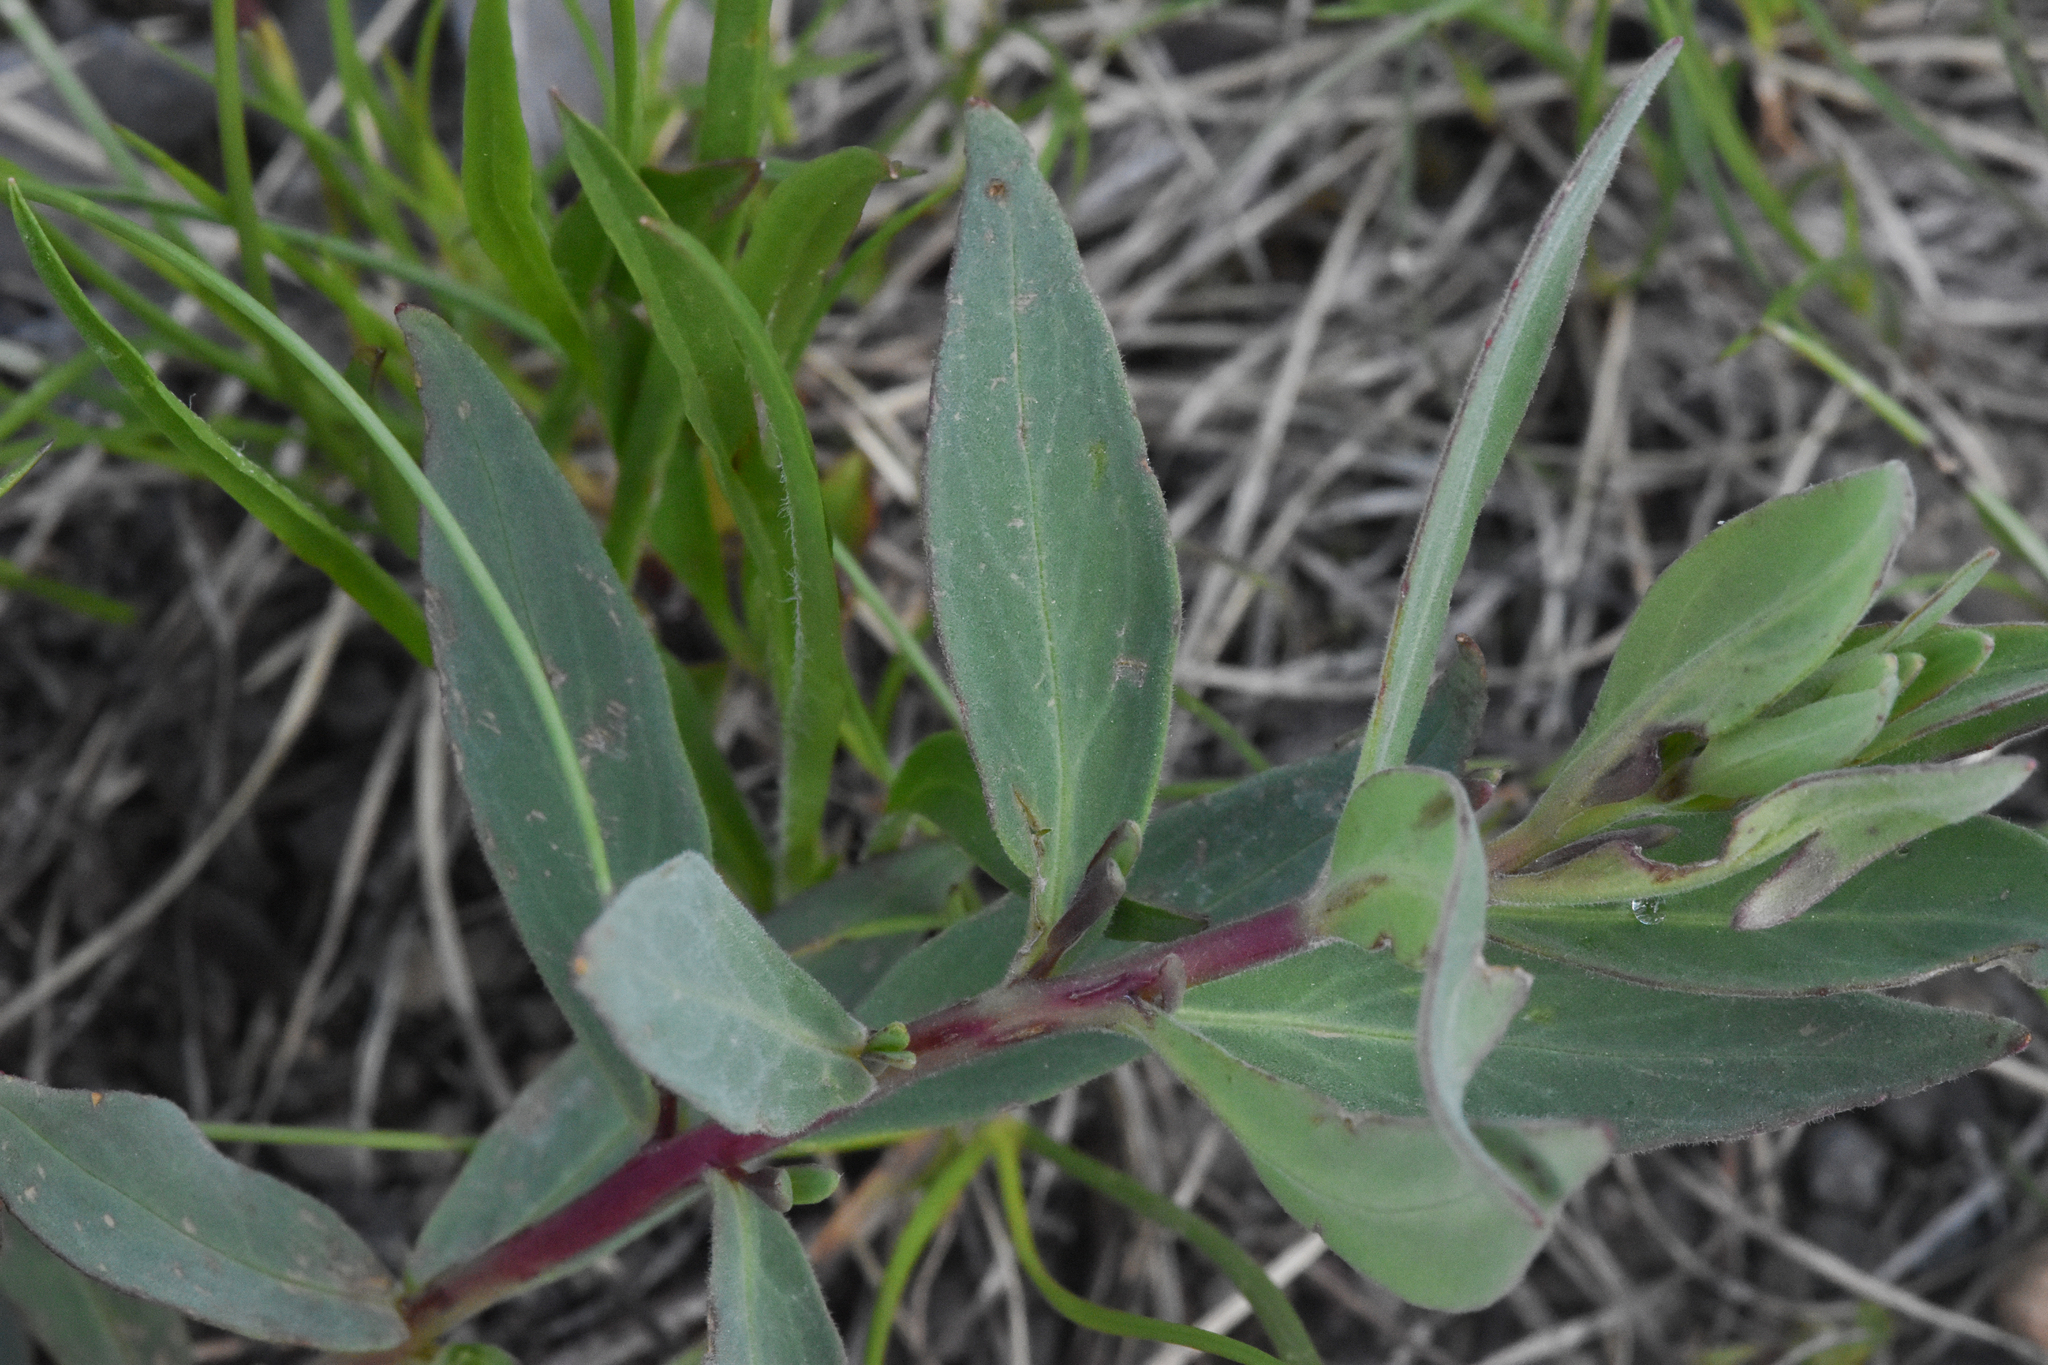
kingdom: Plantae
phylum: Tracheophyta
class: Magnoliopsida
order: Myrtales
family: Onagraceae
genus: Chamaenerion
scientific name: Chamaenerion latifolium
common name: Dwarf fireweed
